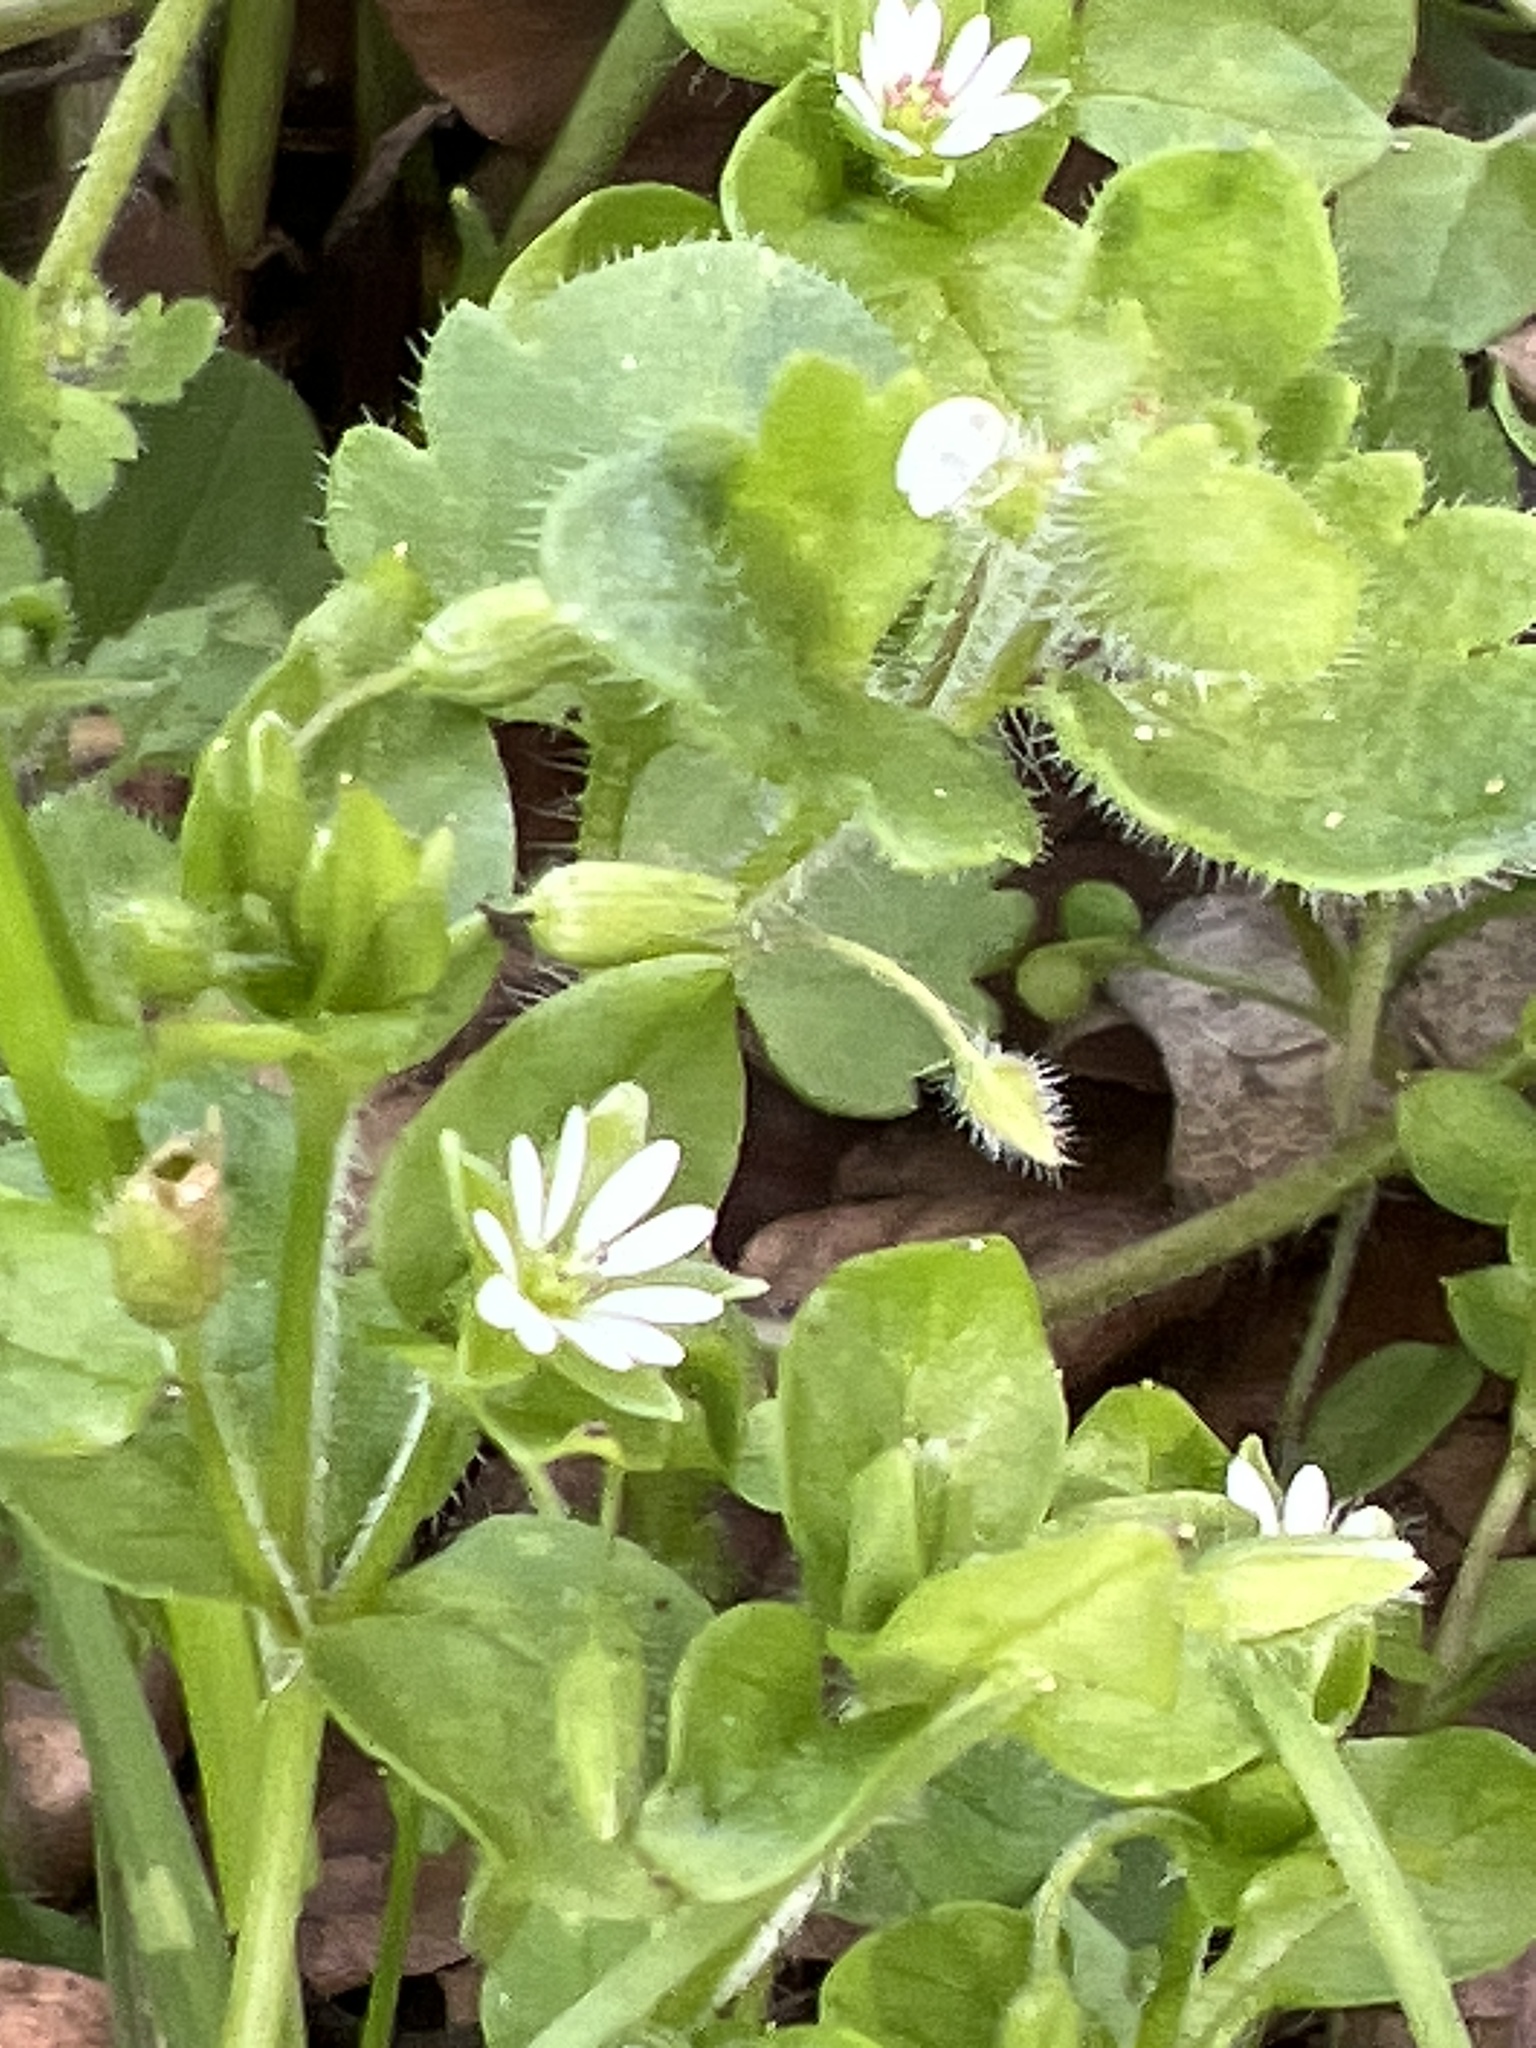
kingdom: Plantae
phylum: Tracheophyta
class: Magnoliopsida
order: Caryophyllales
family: Caryophyllaceae
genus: Stellaria
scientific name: Stellaria media
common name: Common chickweed
